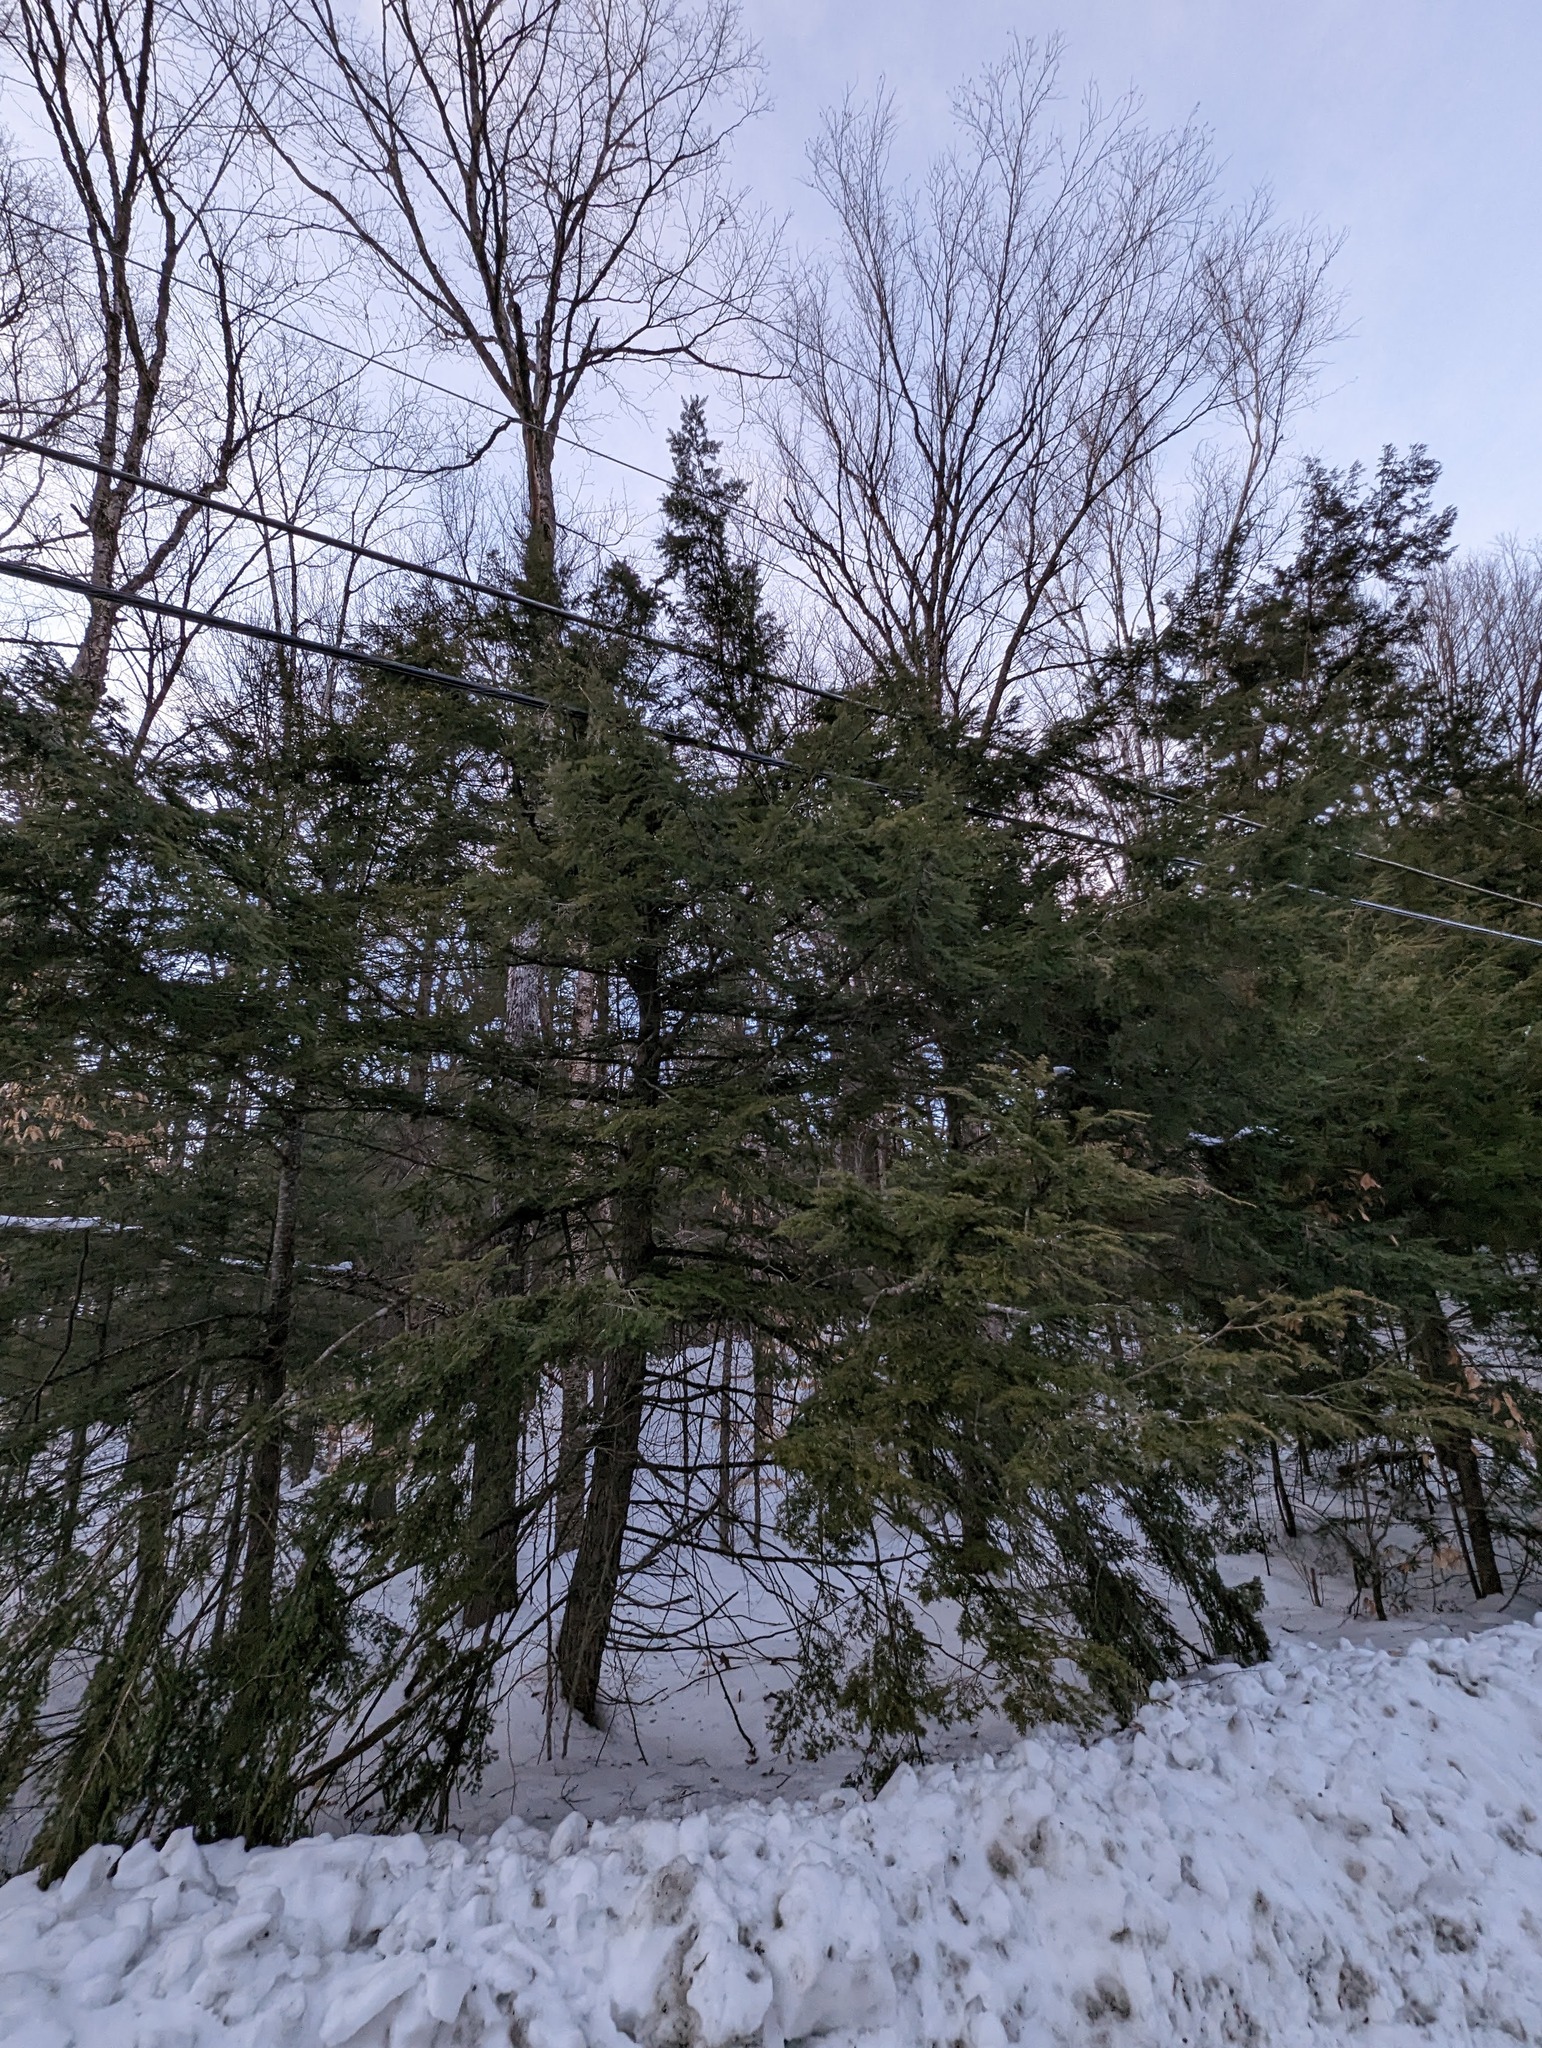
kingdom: Plantae
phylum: Tracheophyta
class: Pinopsida
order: Pinales
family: Pinaceae
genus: Tsuga
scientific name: Tsuga canadensis
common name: Eastern hemlock
